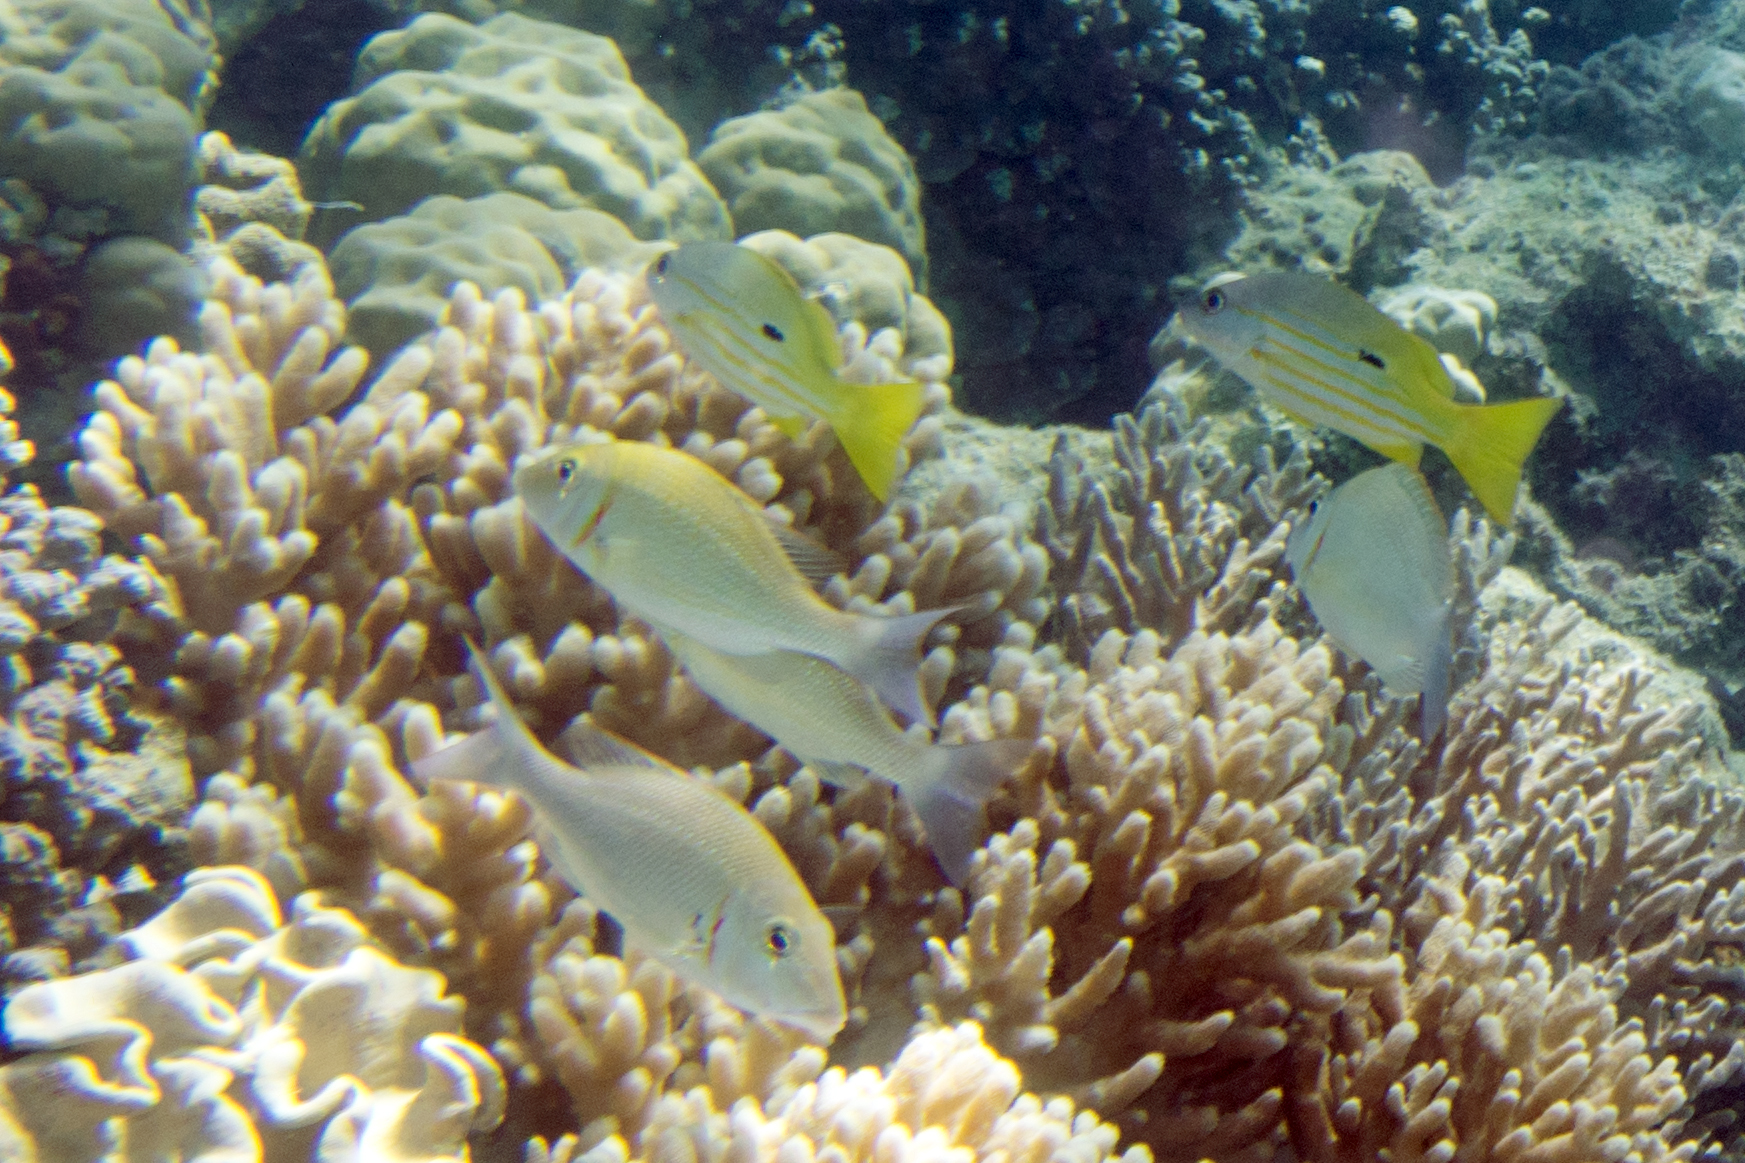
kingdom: Animalia
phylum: Chordata
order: Perciformes
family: Lutjanidae
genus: Lutjanus
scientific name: Lutjanus fulviflamma
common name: Blackspot snapper
